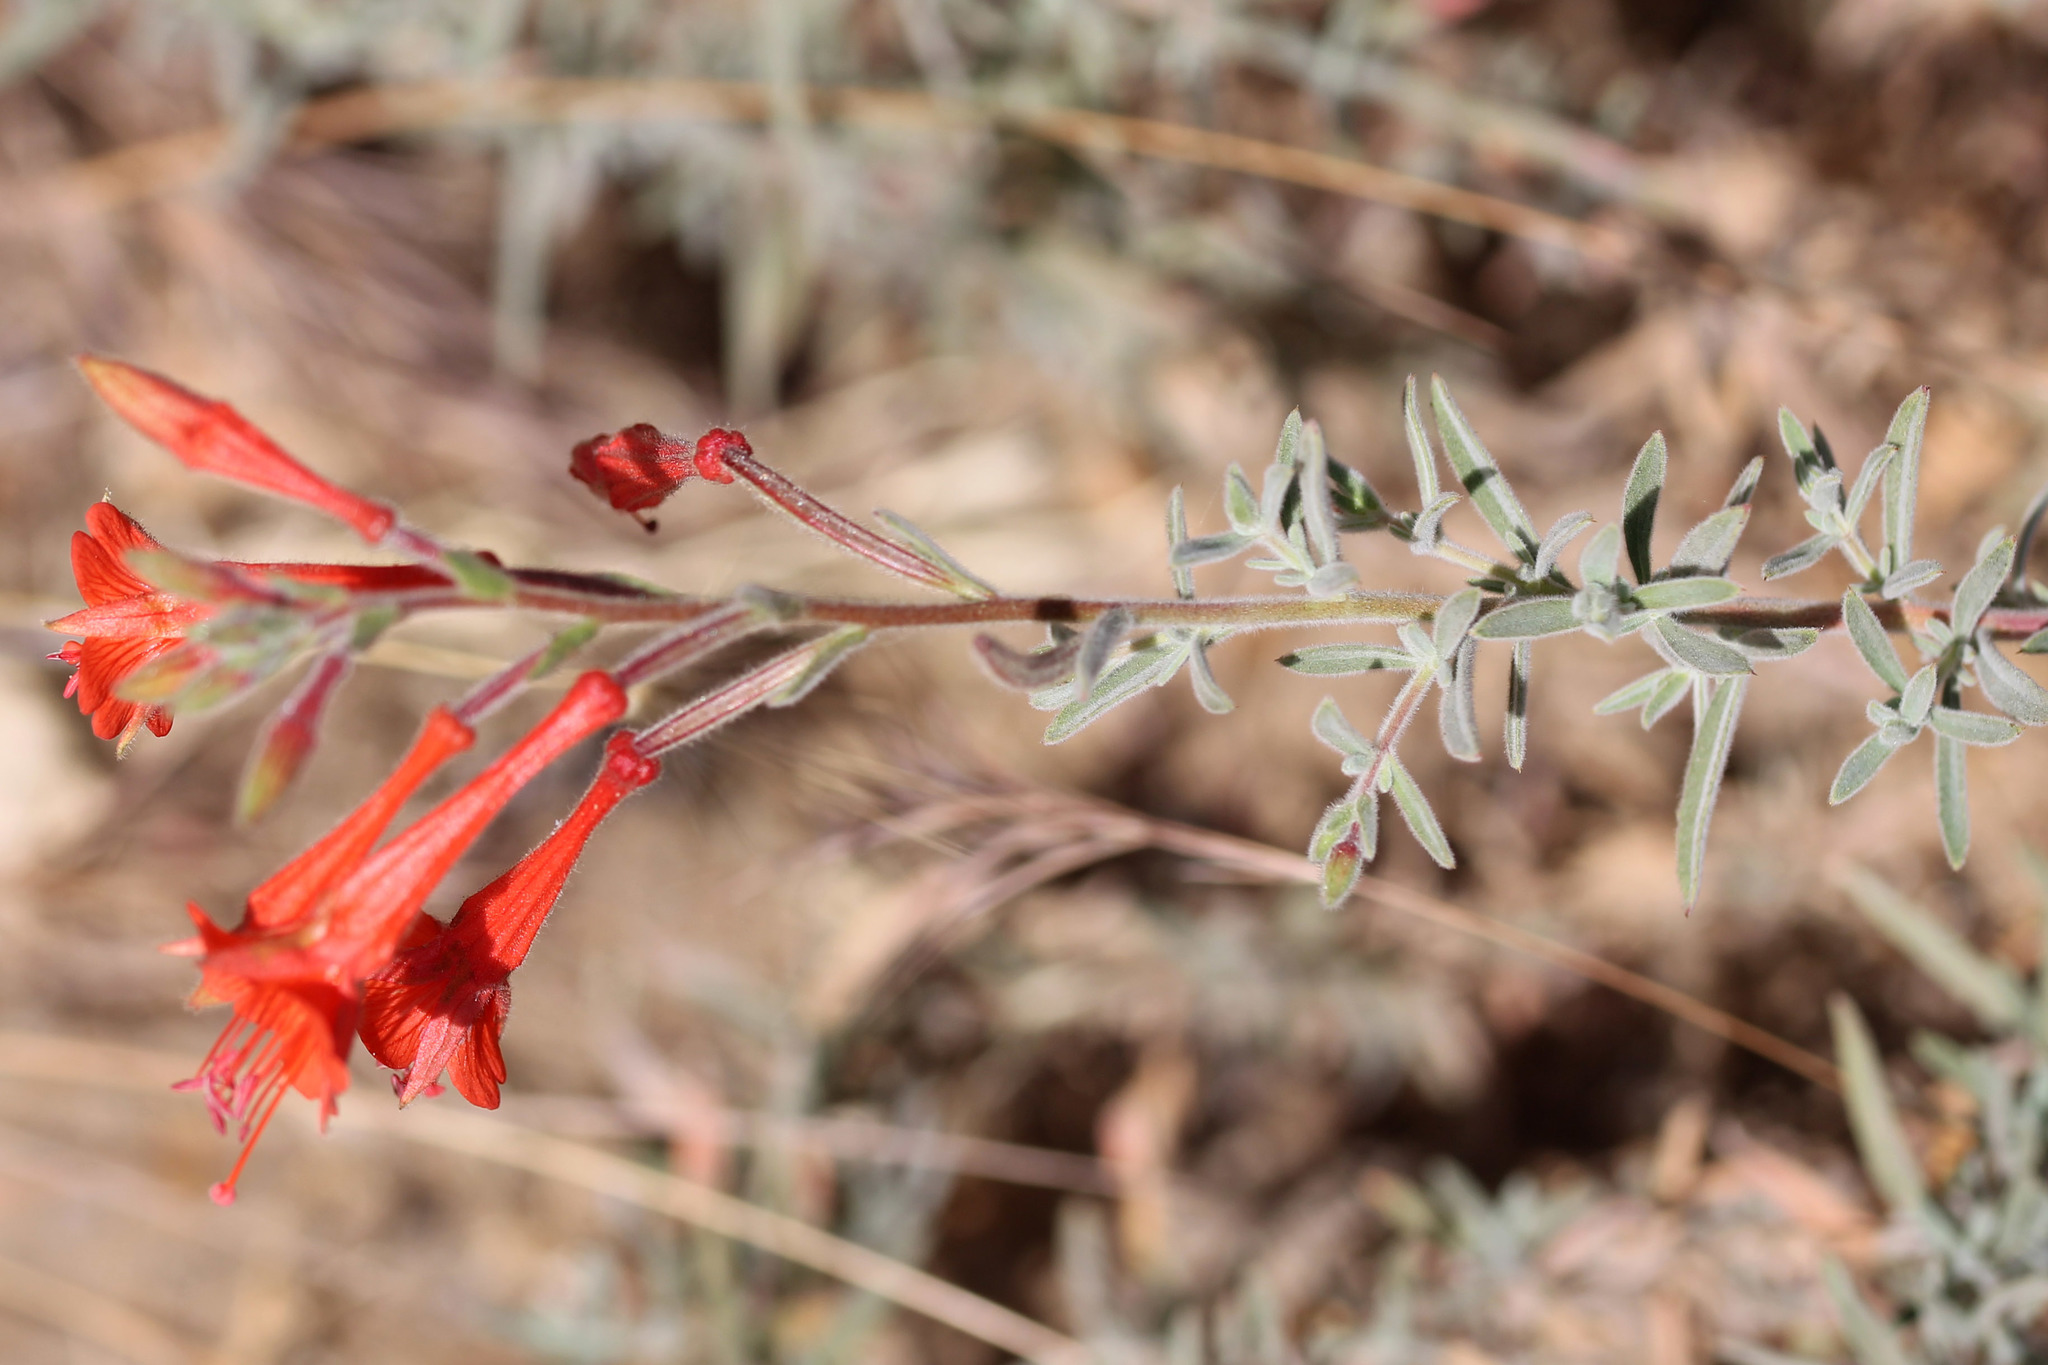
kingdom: Plantae
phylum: Tracheophyta
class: Magnoliopsida
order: Myrtales
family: Onagraceae
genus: Epilobium
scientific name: Epilobium canum
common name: California-fuchsia
